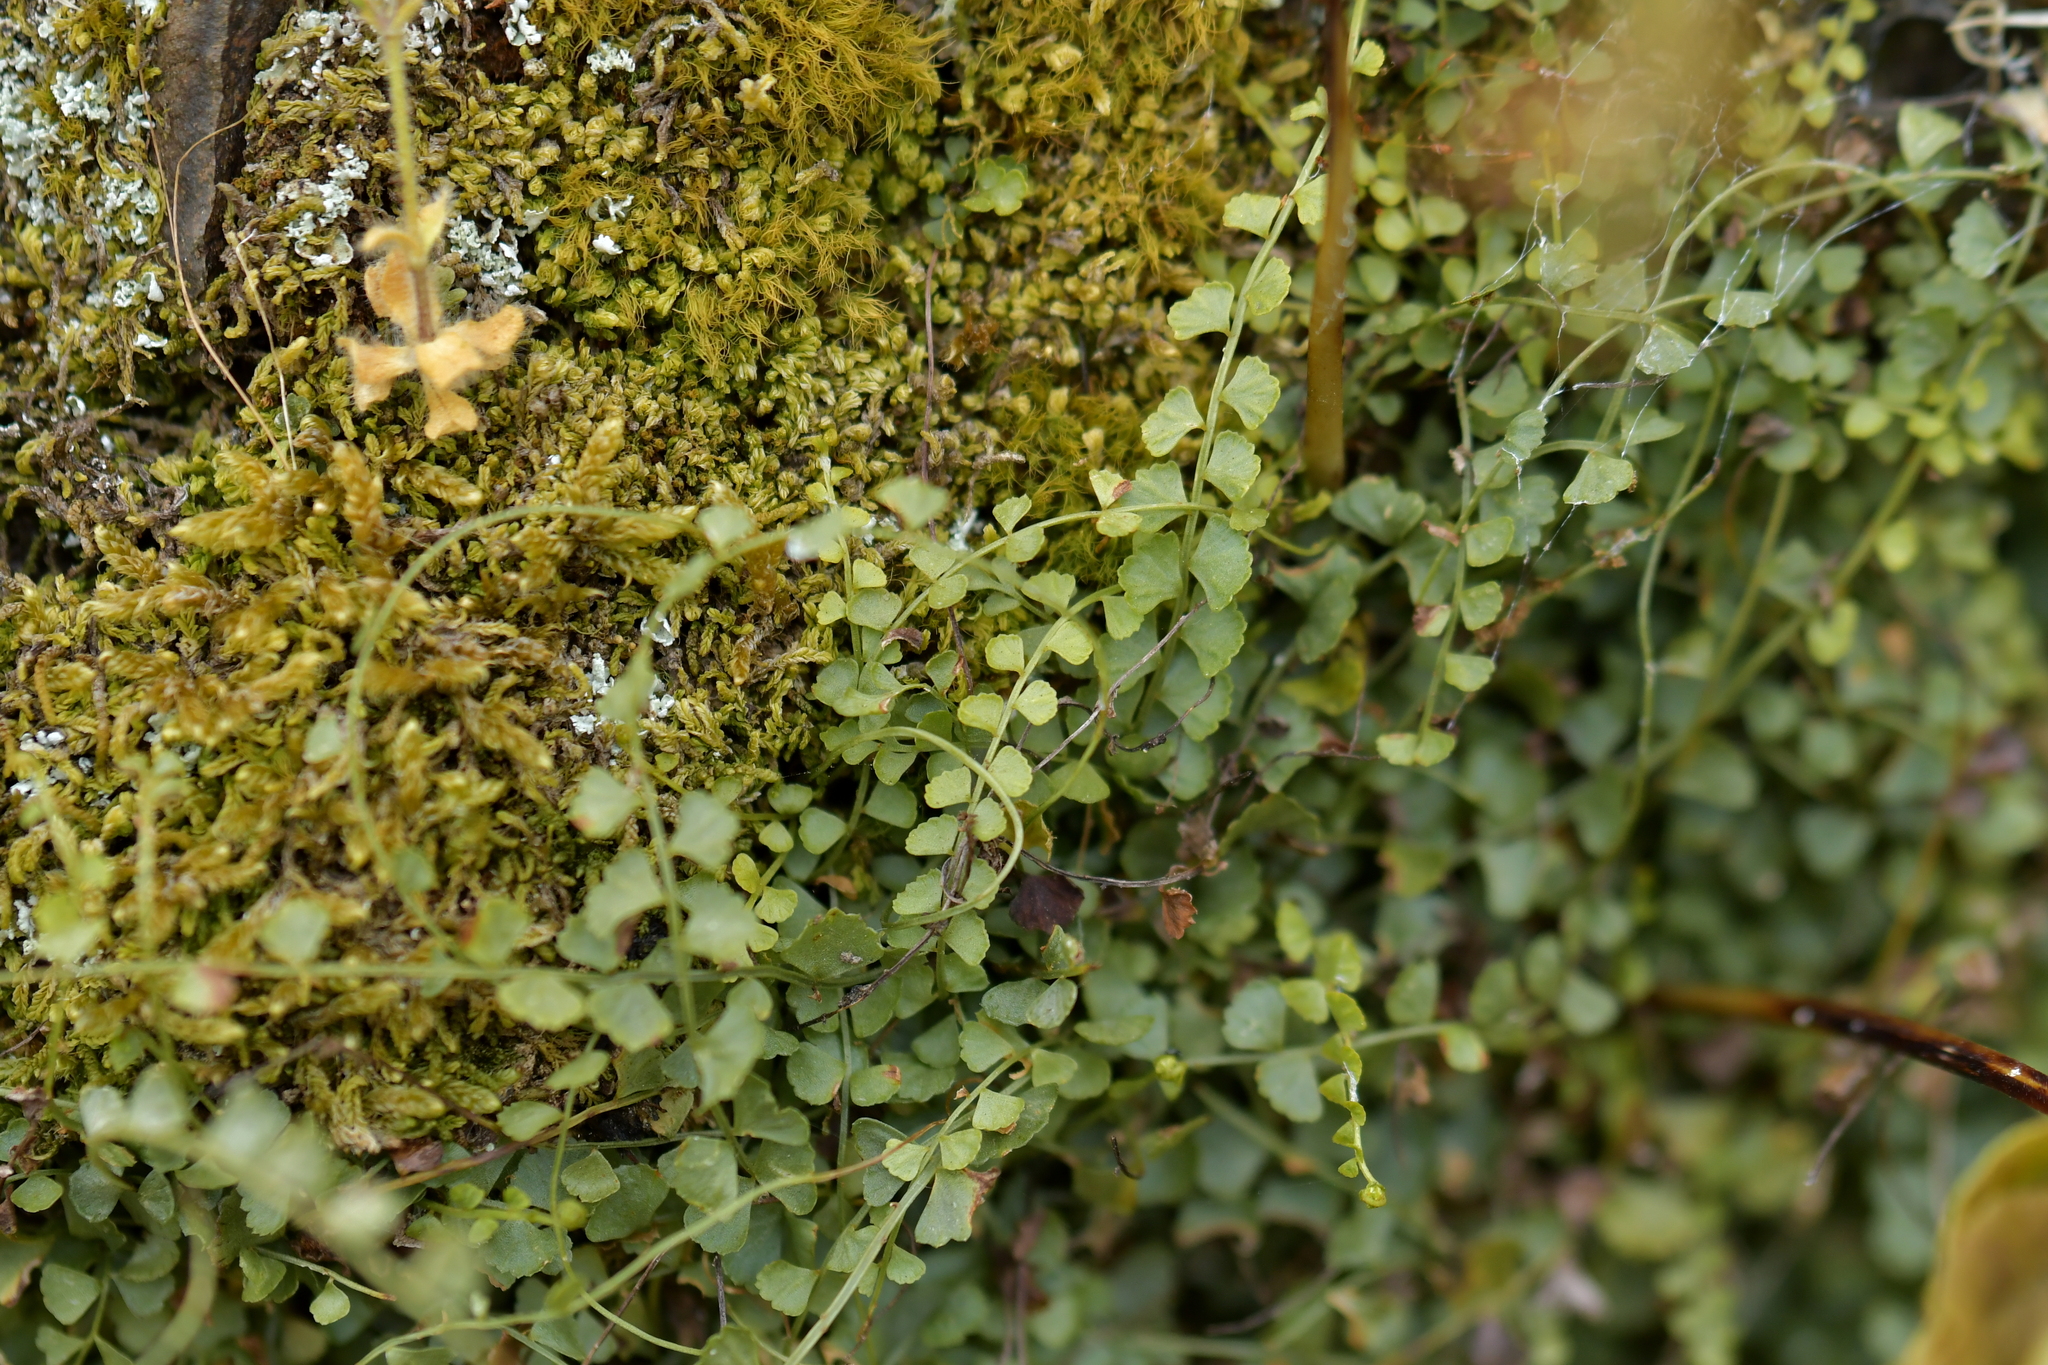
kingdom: Plantae
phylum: Tracheophyta
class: Polypodiopsida
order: Polypodiales
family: Aspleniaceae
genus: Asplenium
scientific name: Asplenium flabellifolium
